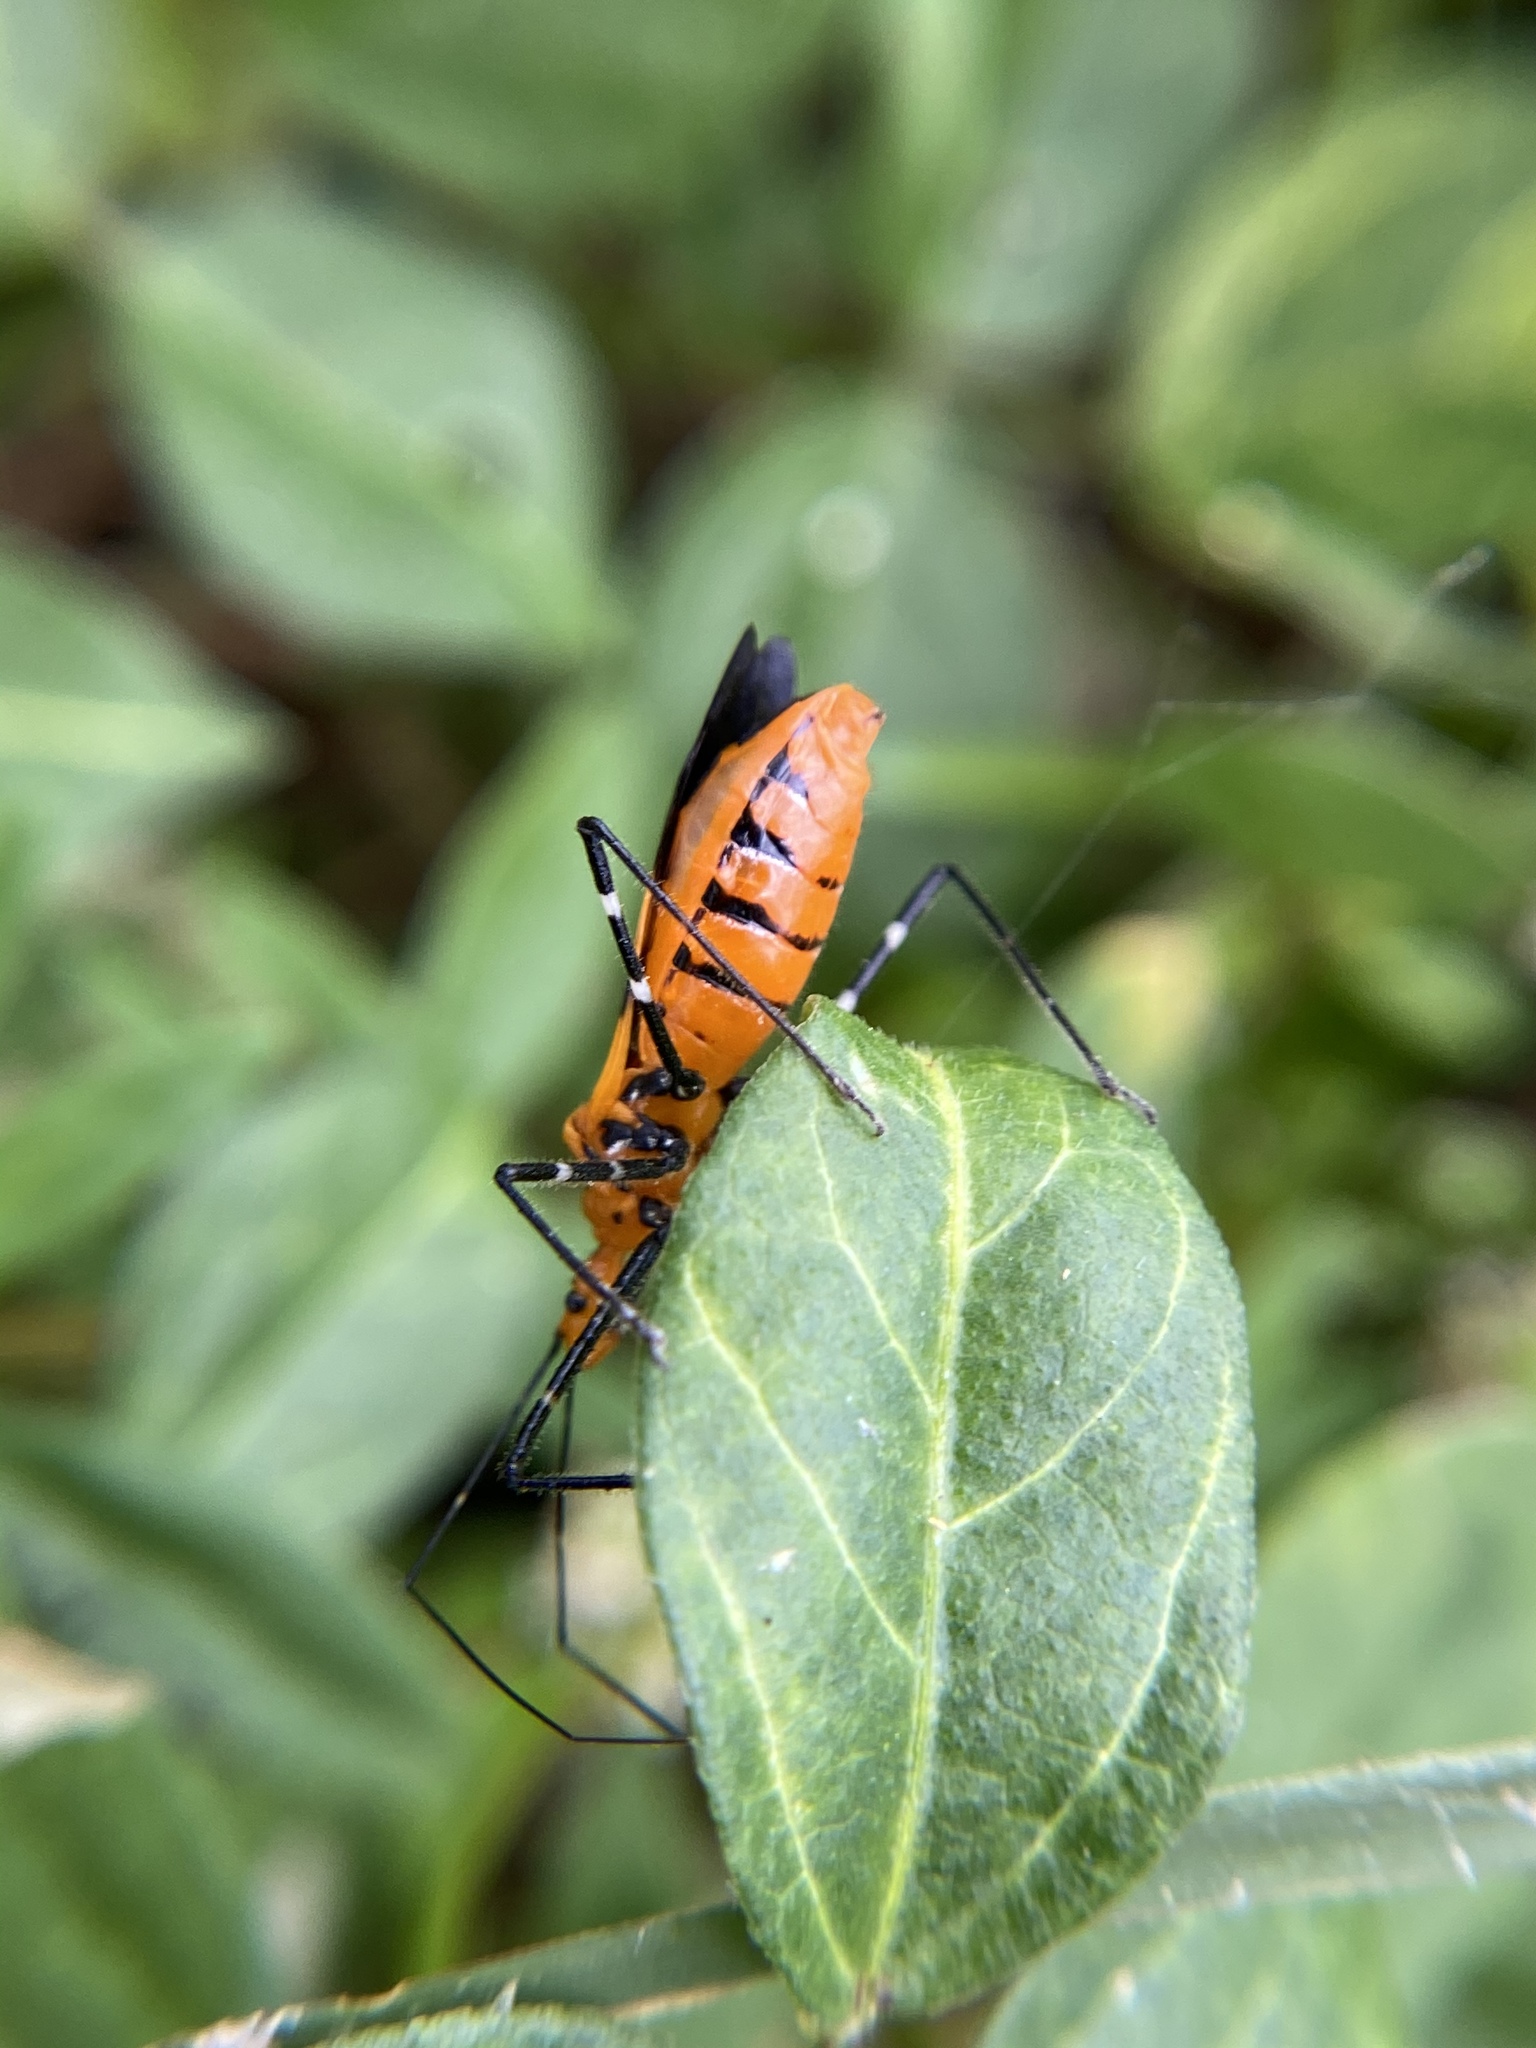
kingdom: Animalia
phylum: Arthropoda
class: Insecta
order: Hemiptera
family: Reduviidae
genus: Zelus
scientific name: Zelus longipes
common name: Milkweed assassin bug
